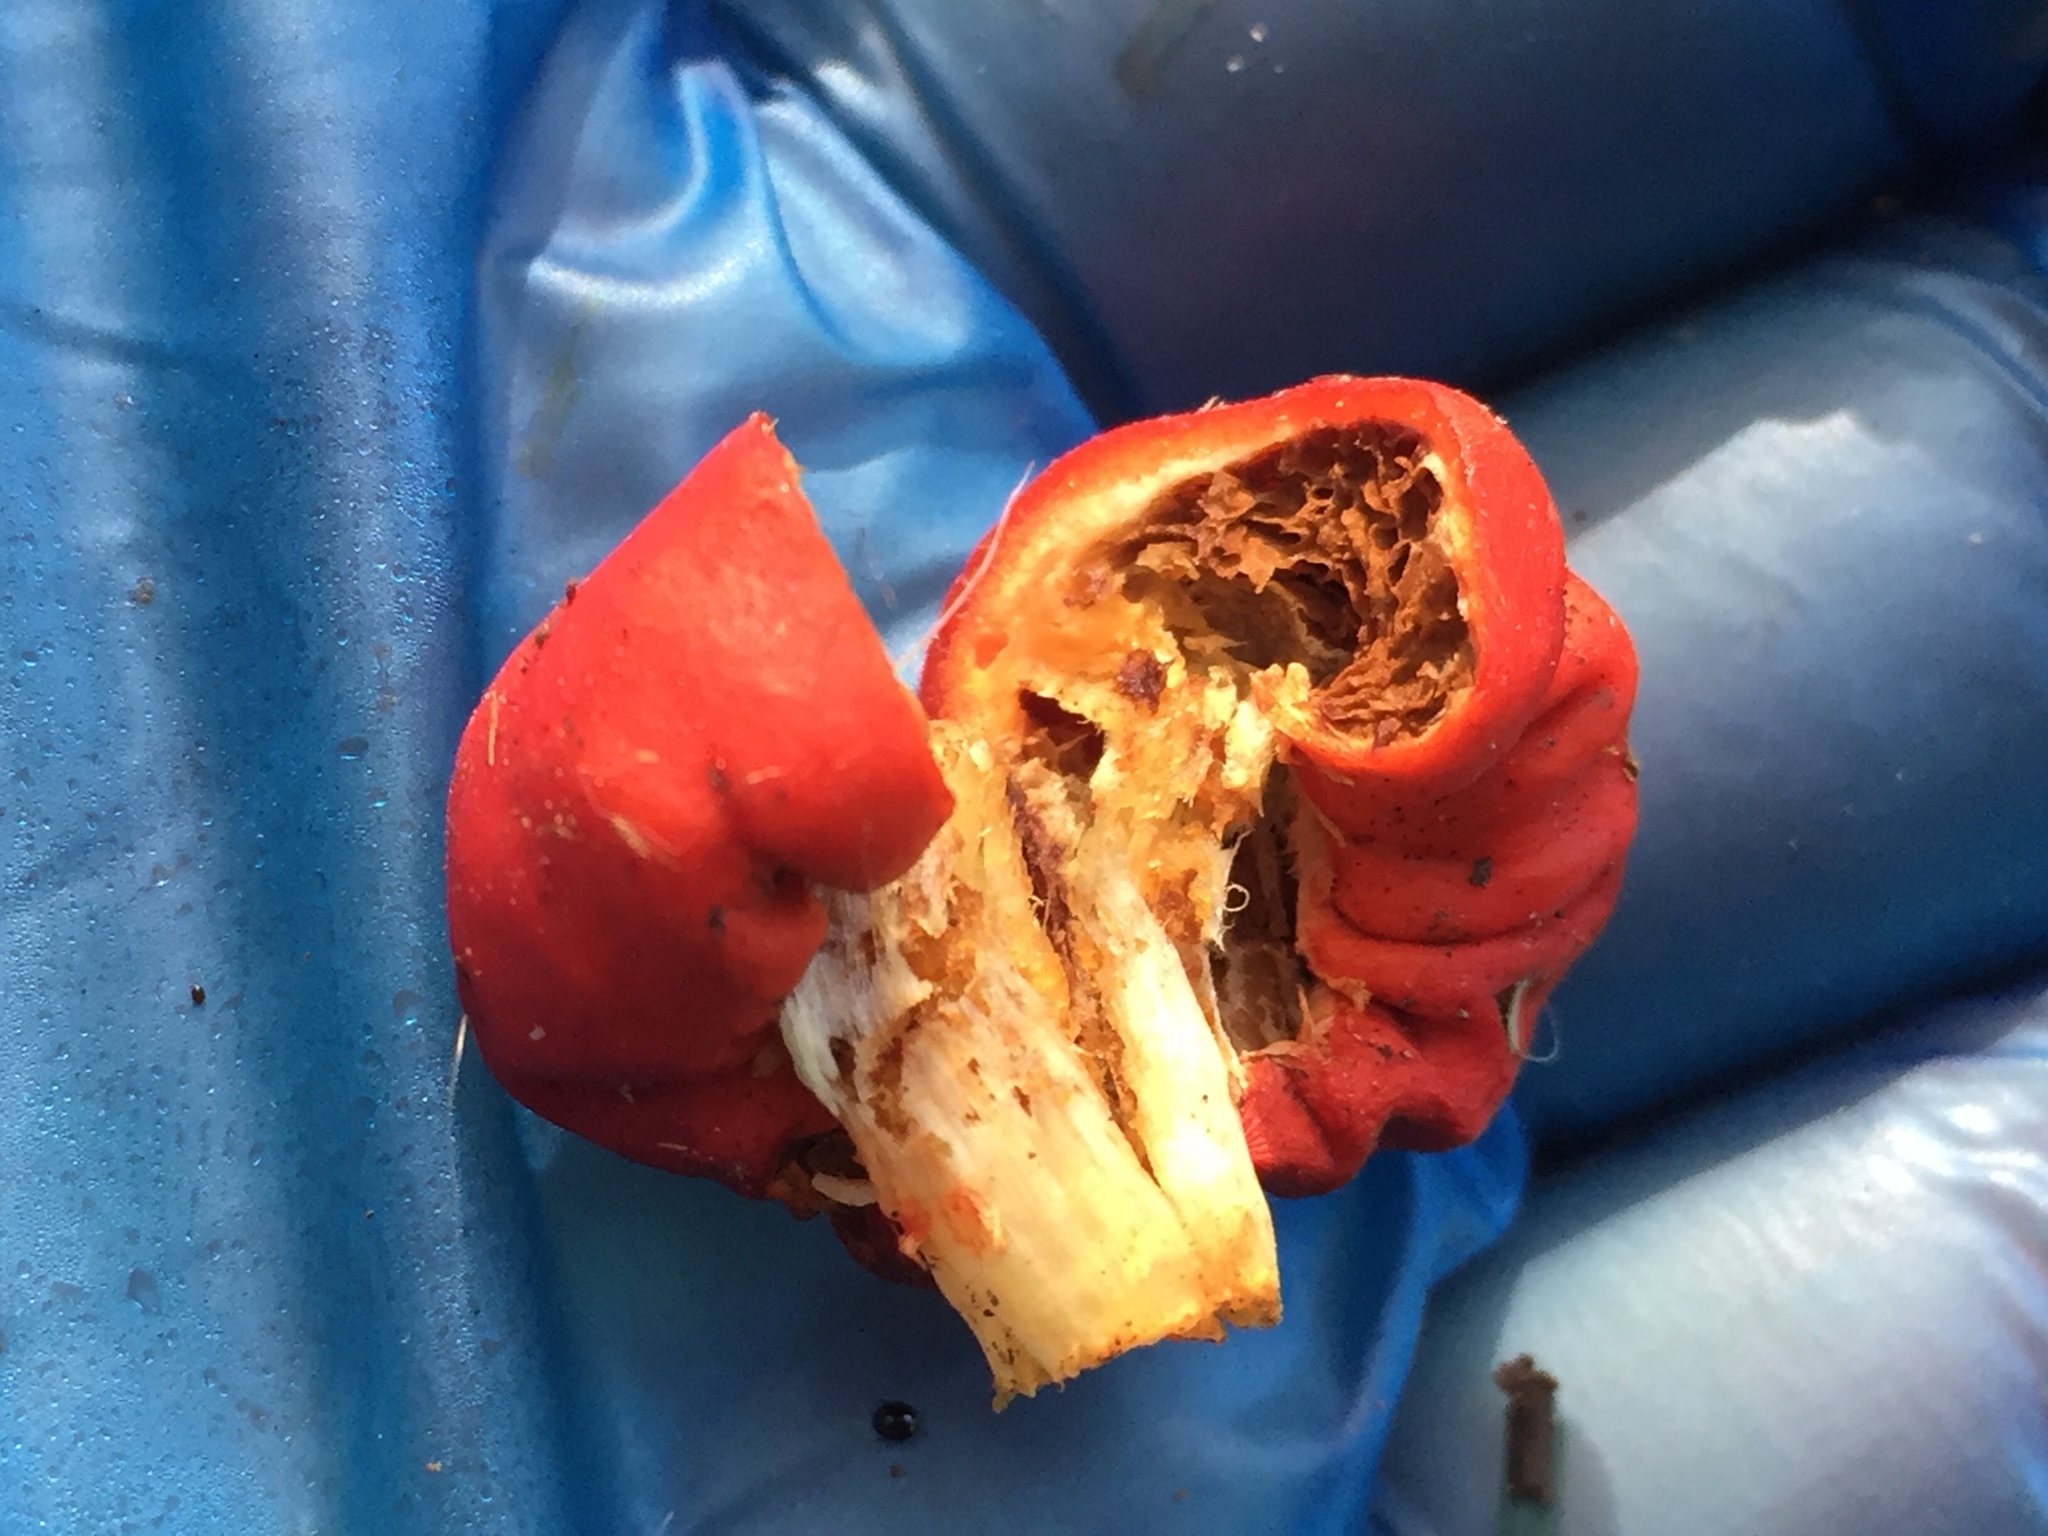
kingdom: Fungi
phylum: Basidiomycota
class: Agaricomycetes
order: Agaricales
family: Strophariaceae
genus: Leratiomyces
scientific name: Leratiomyces erythrocephalus
